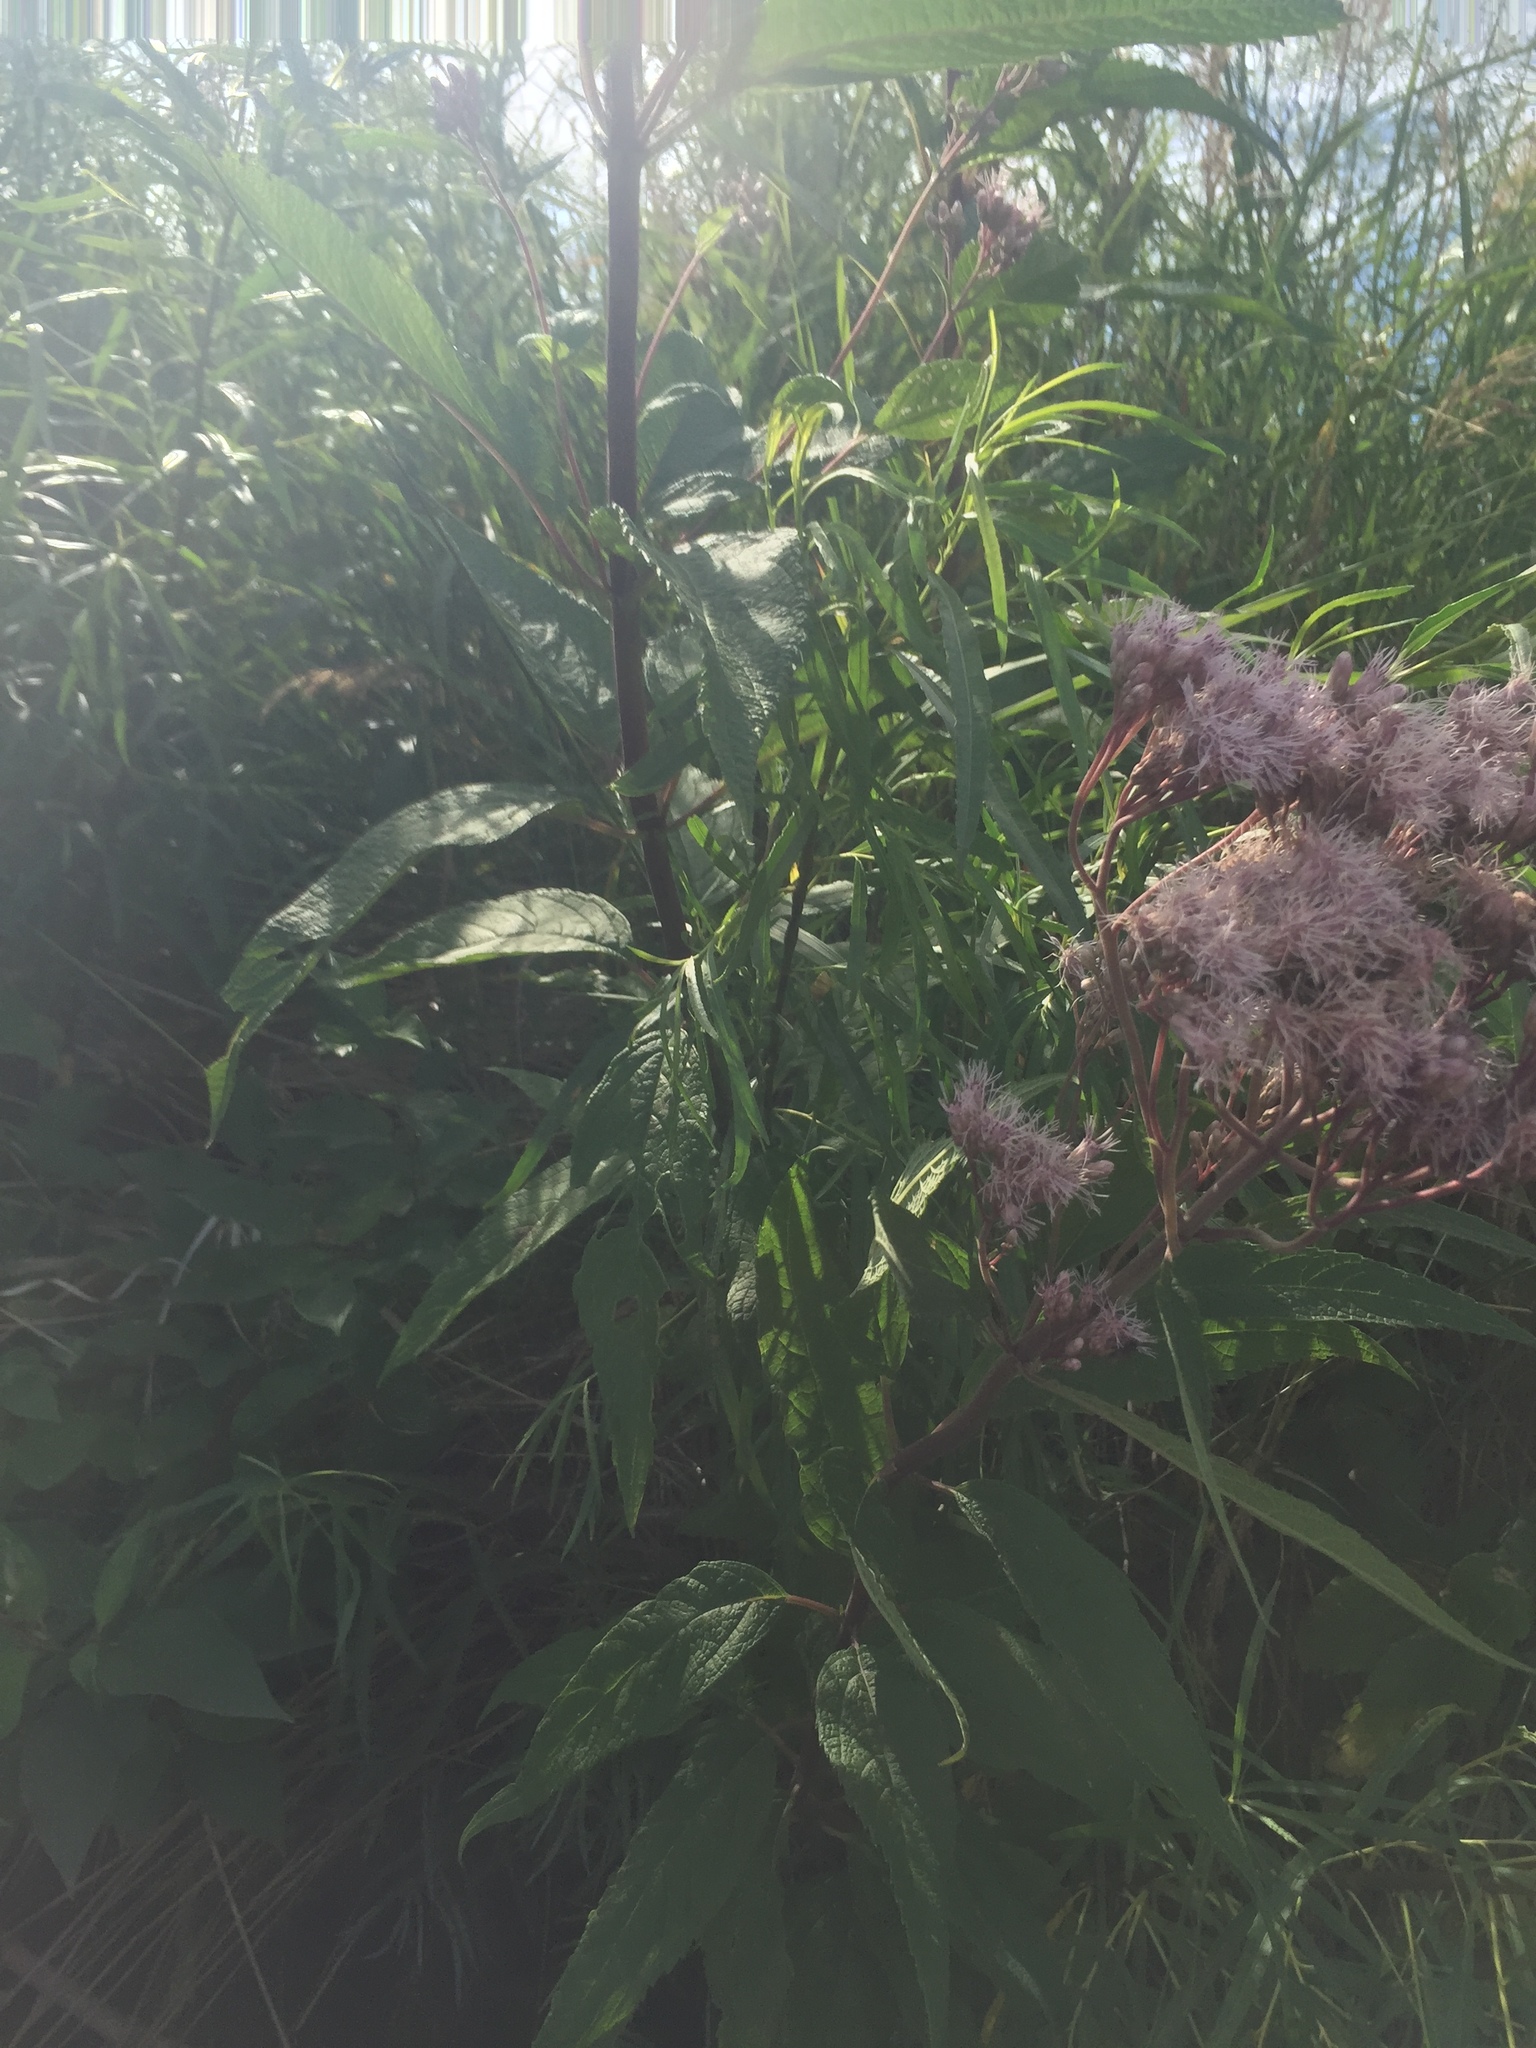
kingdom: Plantae
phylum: Tracheophyta
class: Magnoliopsida
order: Asterales
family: Asteraceae
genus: Eutrochium
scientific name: Eutrochium maculatum
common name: Spotted joe pye weed
